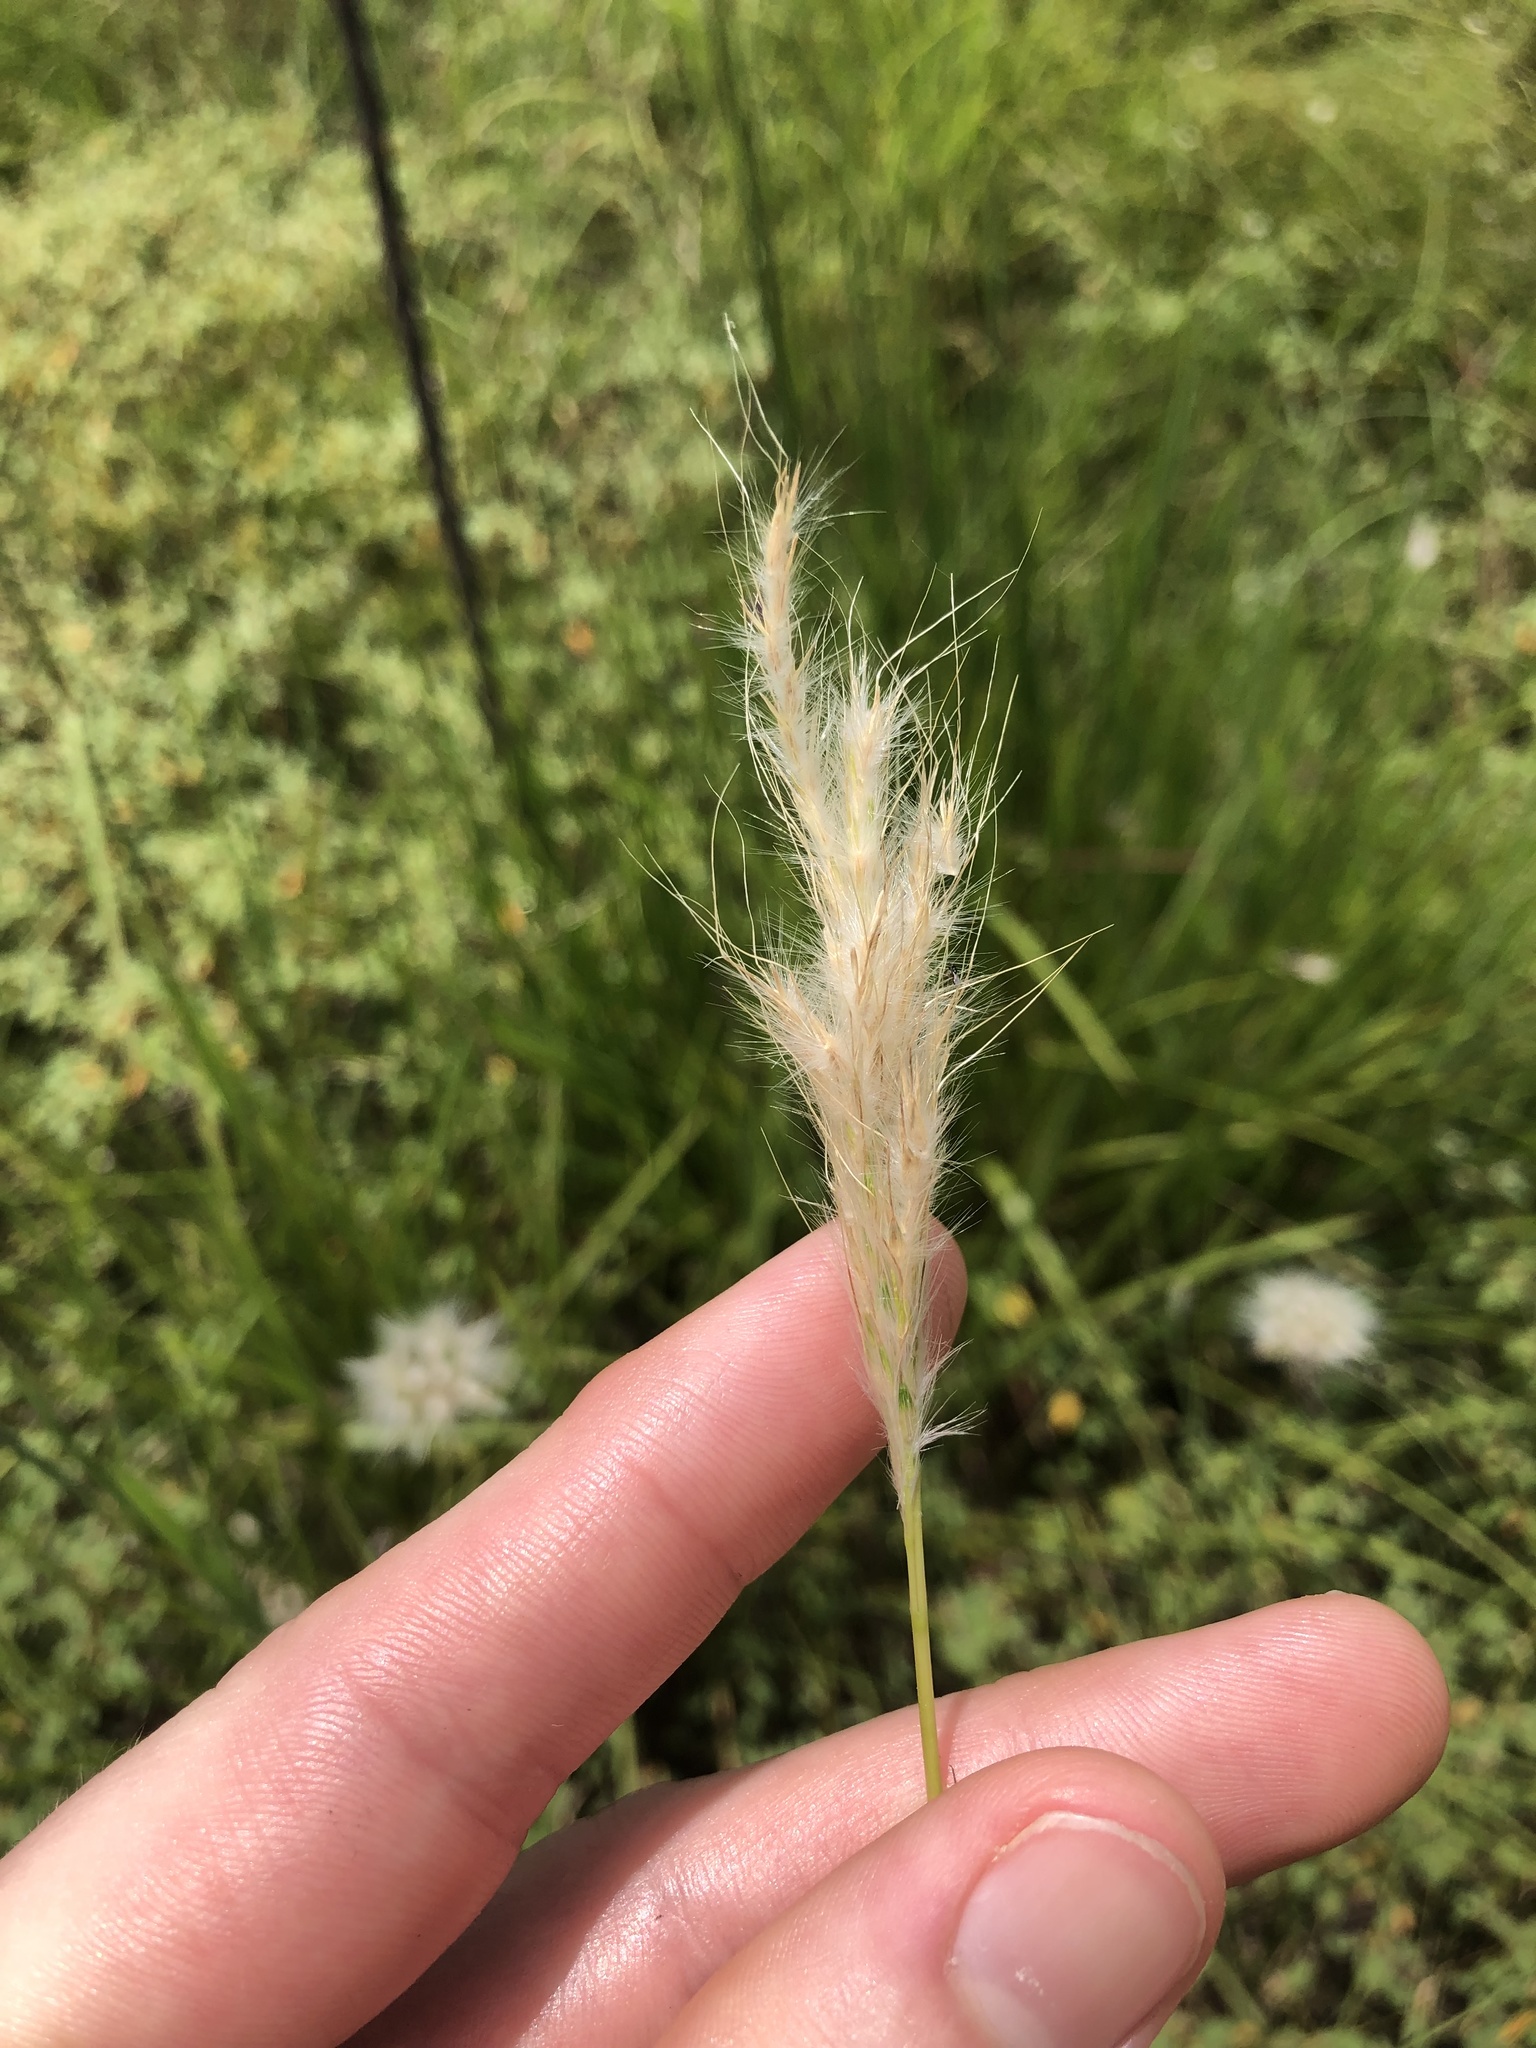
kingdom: Plantae
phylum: Tracheophyta
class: Liliopsida
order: Poales
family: Poaceae
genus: Bothriochloa
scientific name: Bothriochloa barbinodis
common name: Cane bluestem
